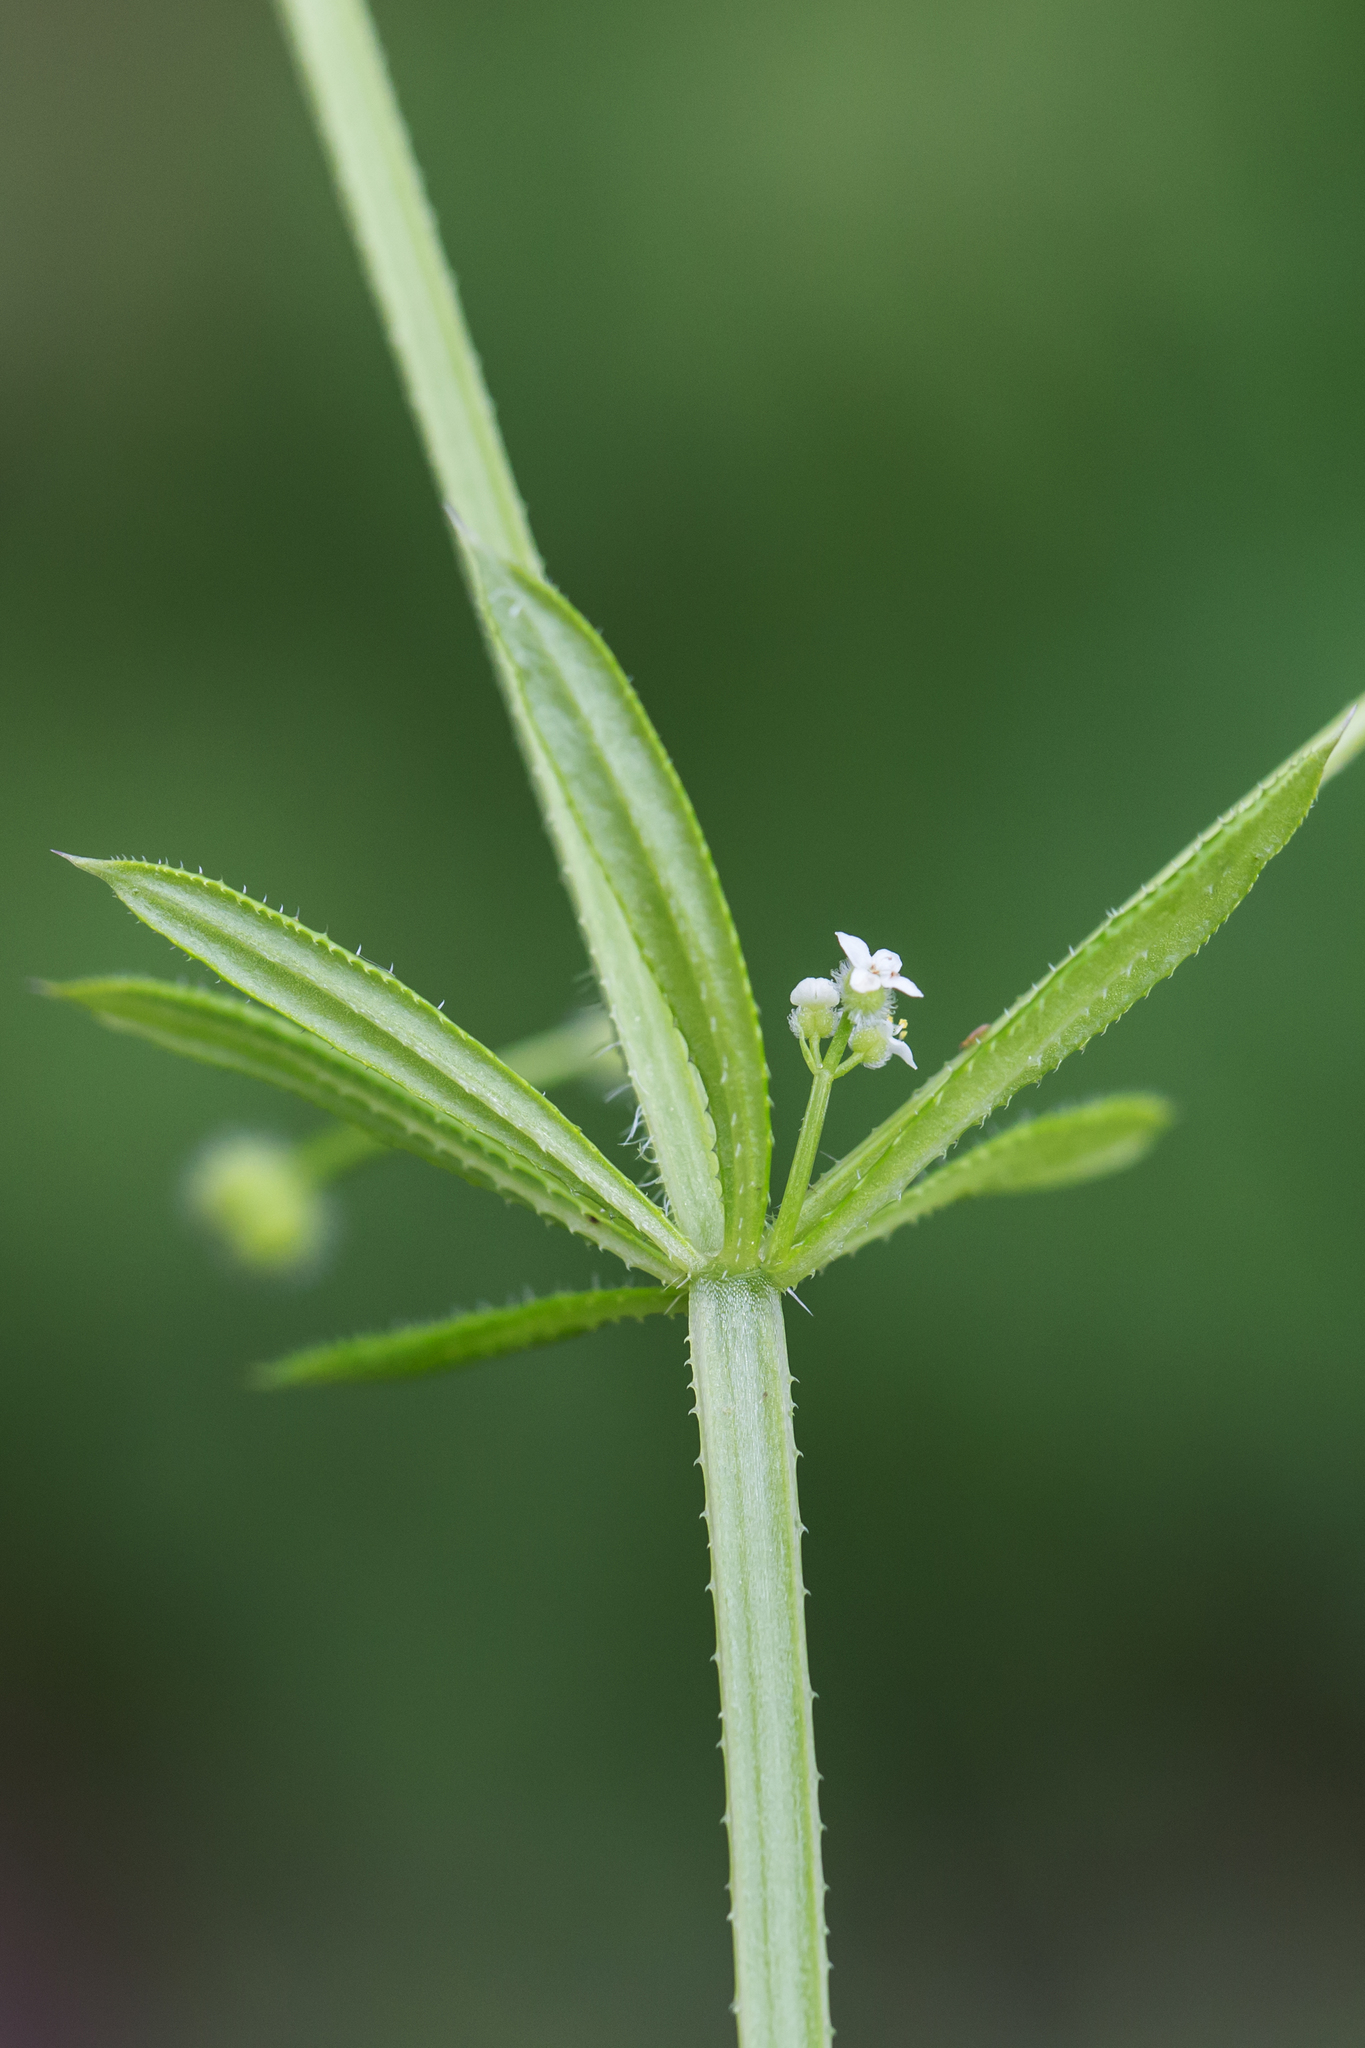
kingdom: Plantae
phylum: Tracheophyta
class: Magnoliopsida
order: Gentianales
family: Rubiaceae
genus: Galium
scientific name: Galium aparine
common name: Cleavers
